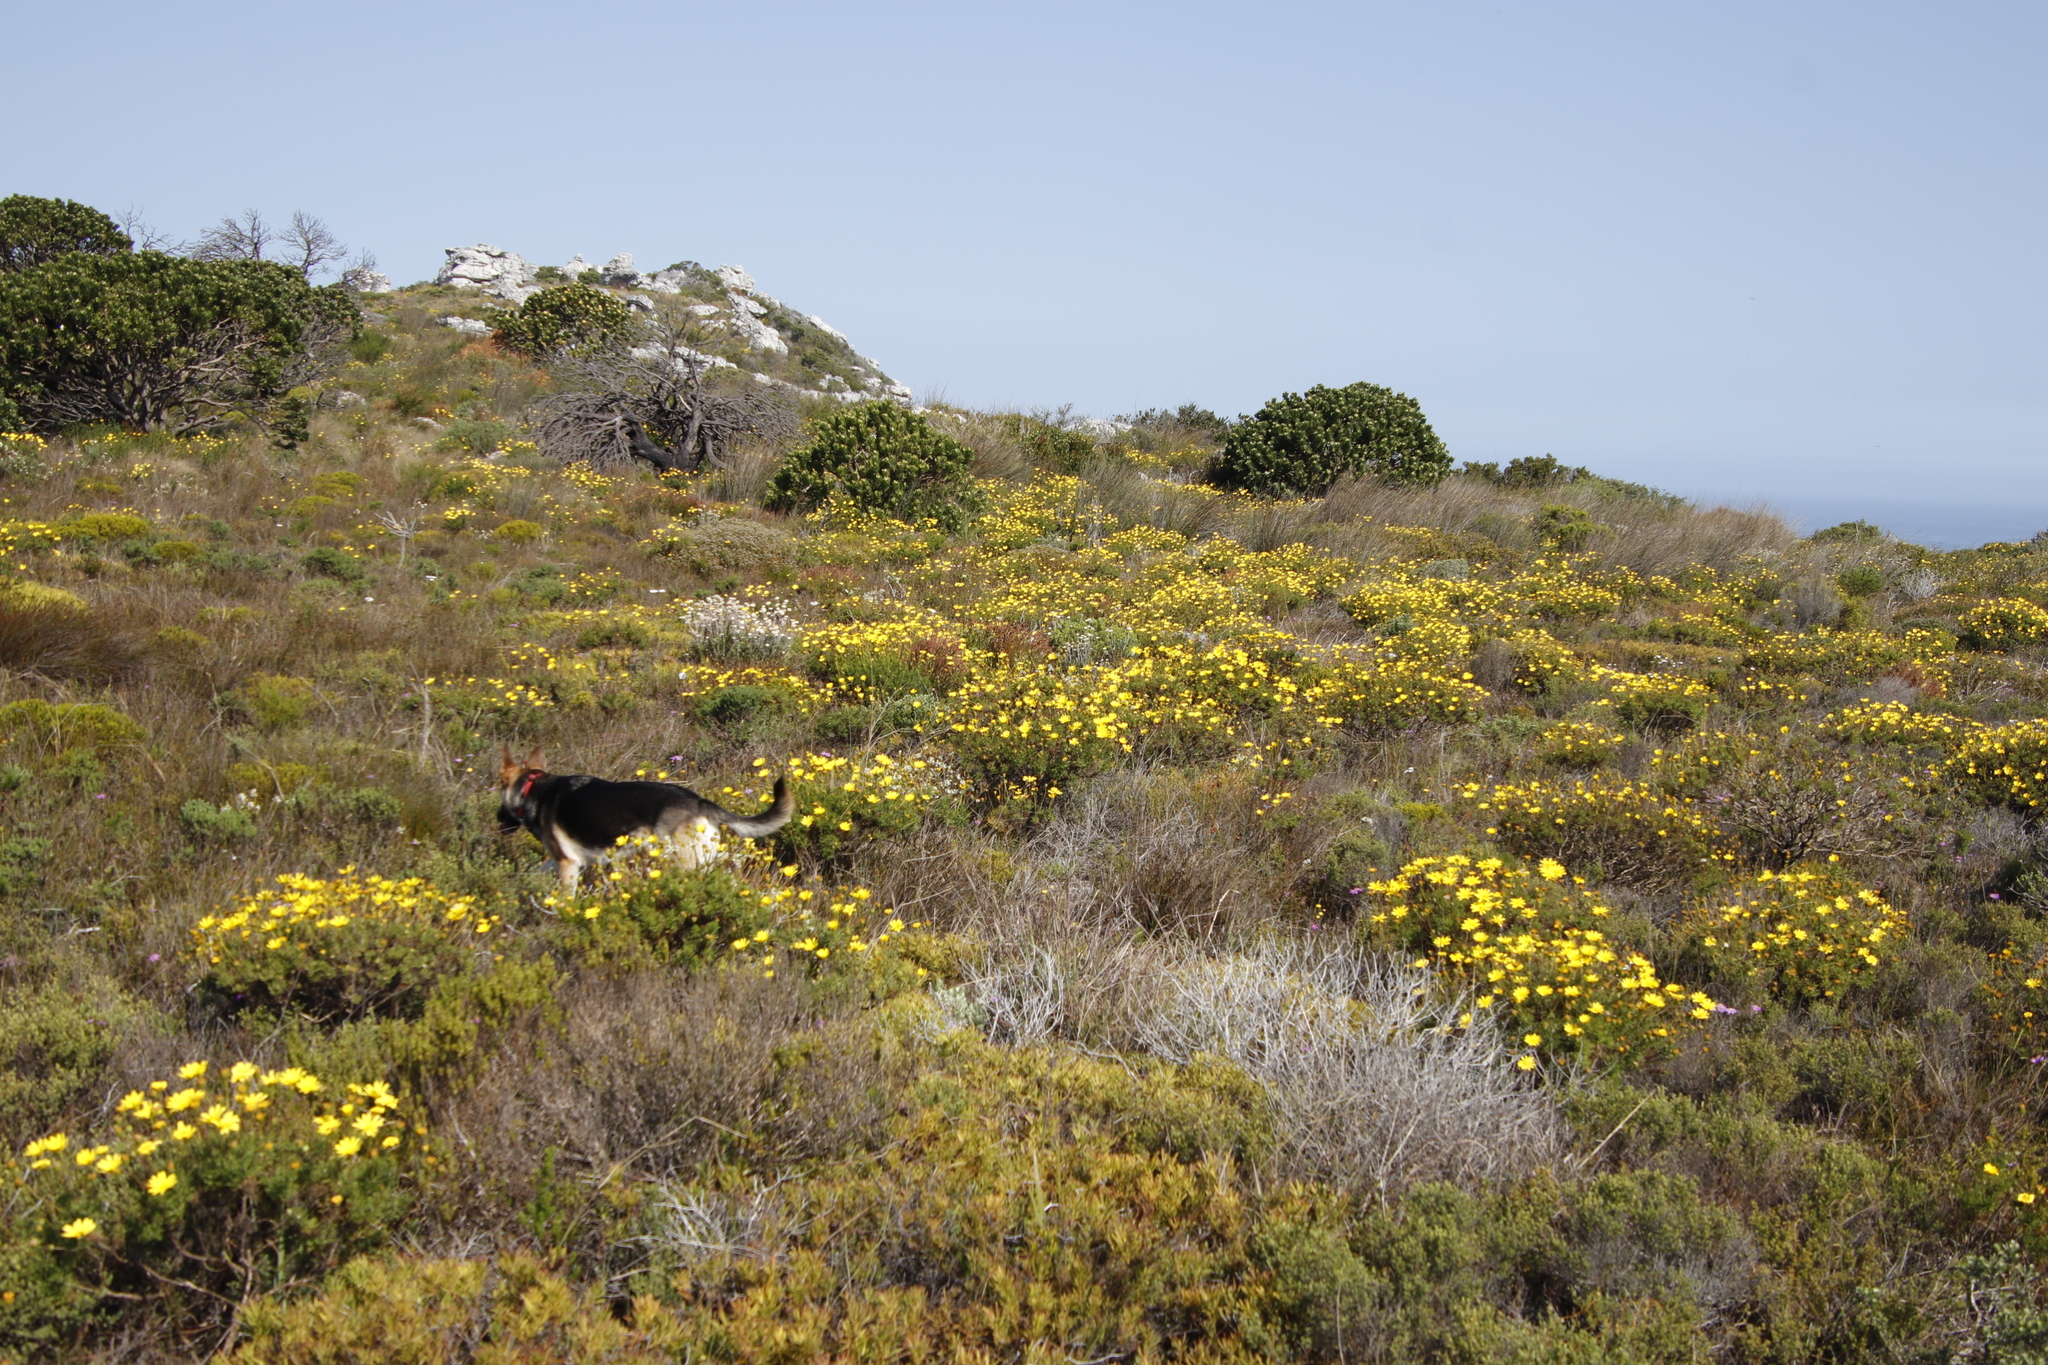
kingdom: Plantae
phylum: Tracheophyta
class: Magnoliopsida
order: Asterales
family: Asteraceae
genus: Euryops
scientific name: Euryops abrotanifolius
